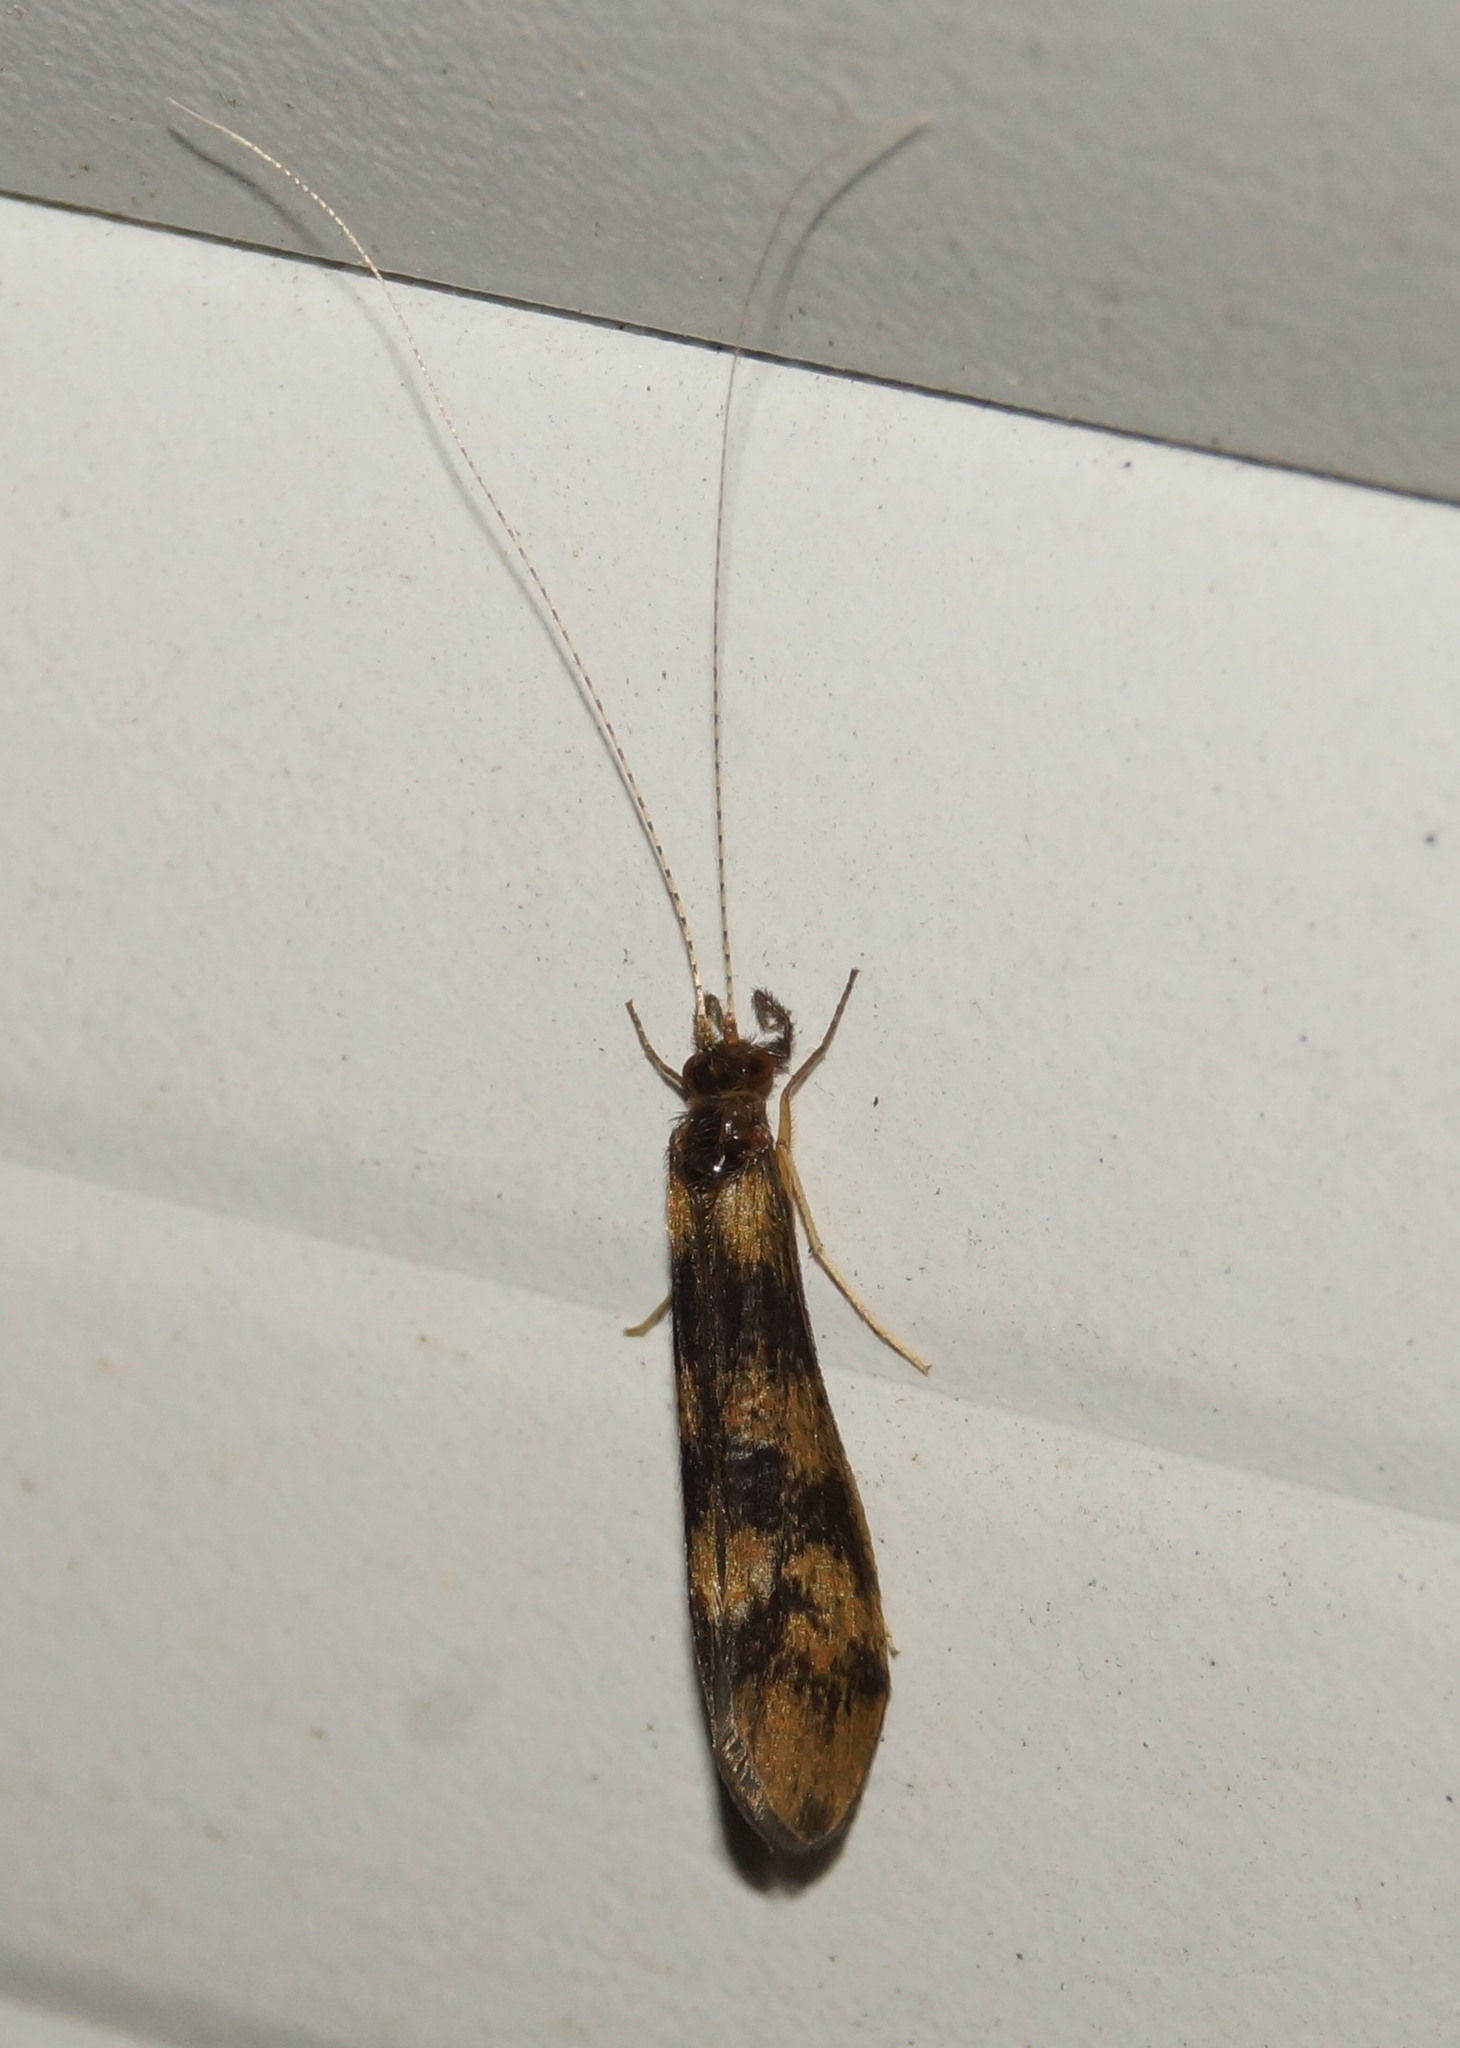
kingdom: Animalia
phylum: Arthropoda
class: Insecta
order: Trichoptera
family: Leptoceridae
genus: Mystacides
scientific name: Mystacides longicornis
